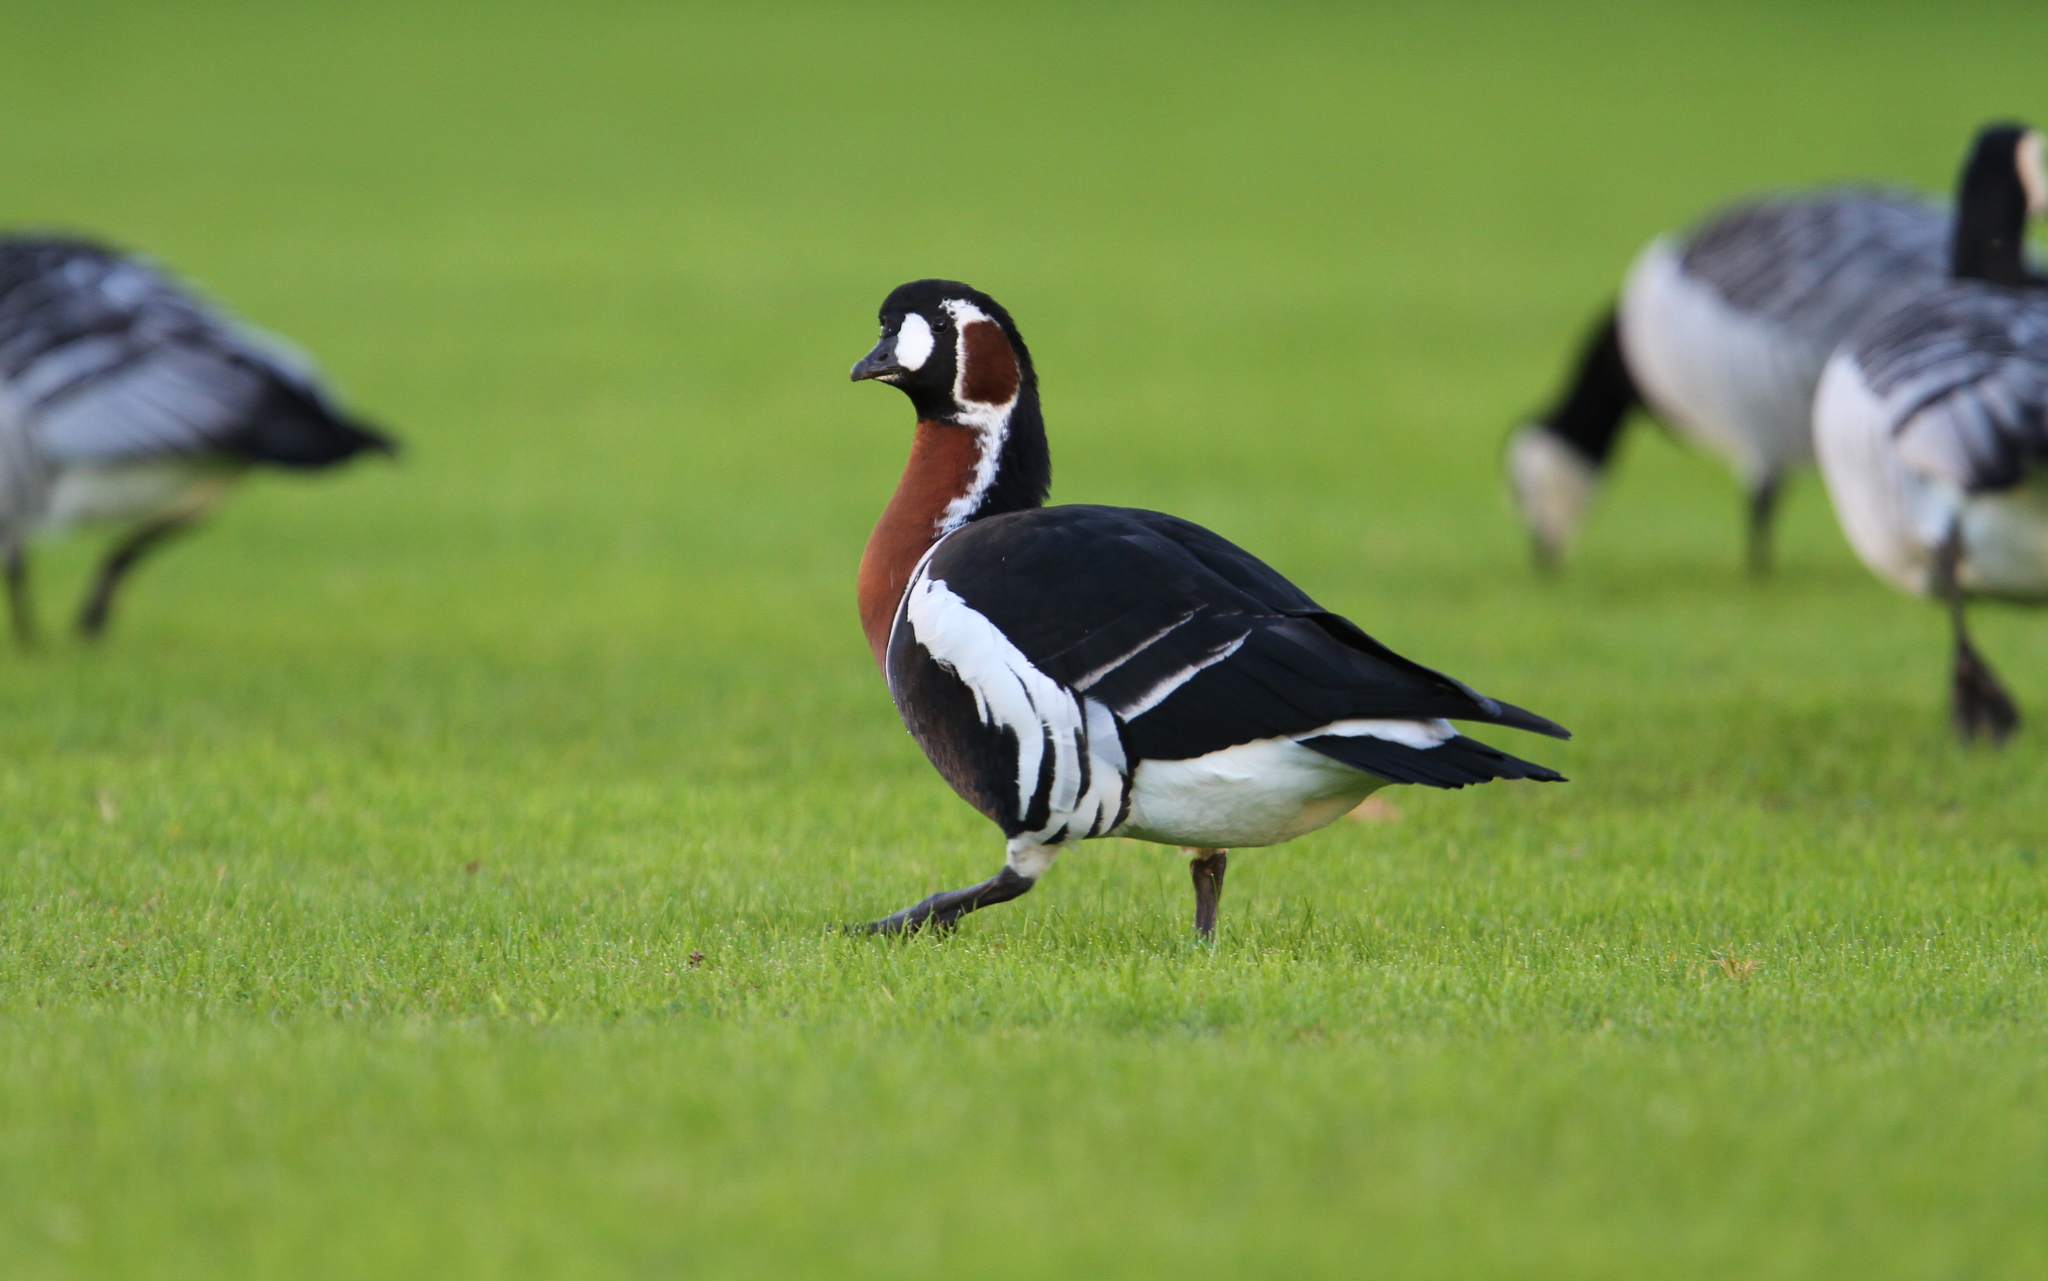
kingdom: Animalia
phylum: Chordata
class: Aves
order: Anseriformes
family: Anatidae
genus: Branta
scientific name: Branta ruficollis
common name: Red-breasted goose
